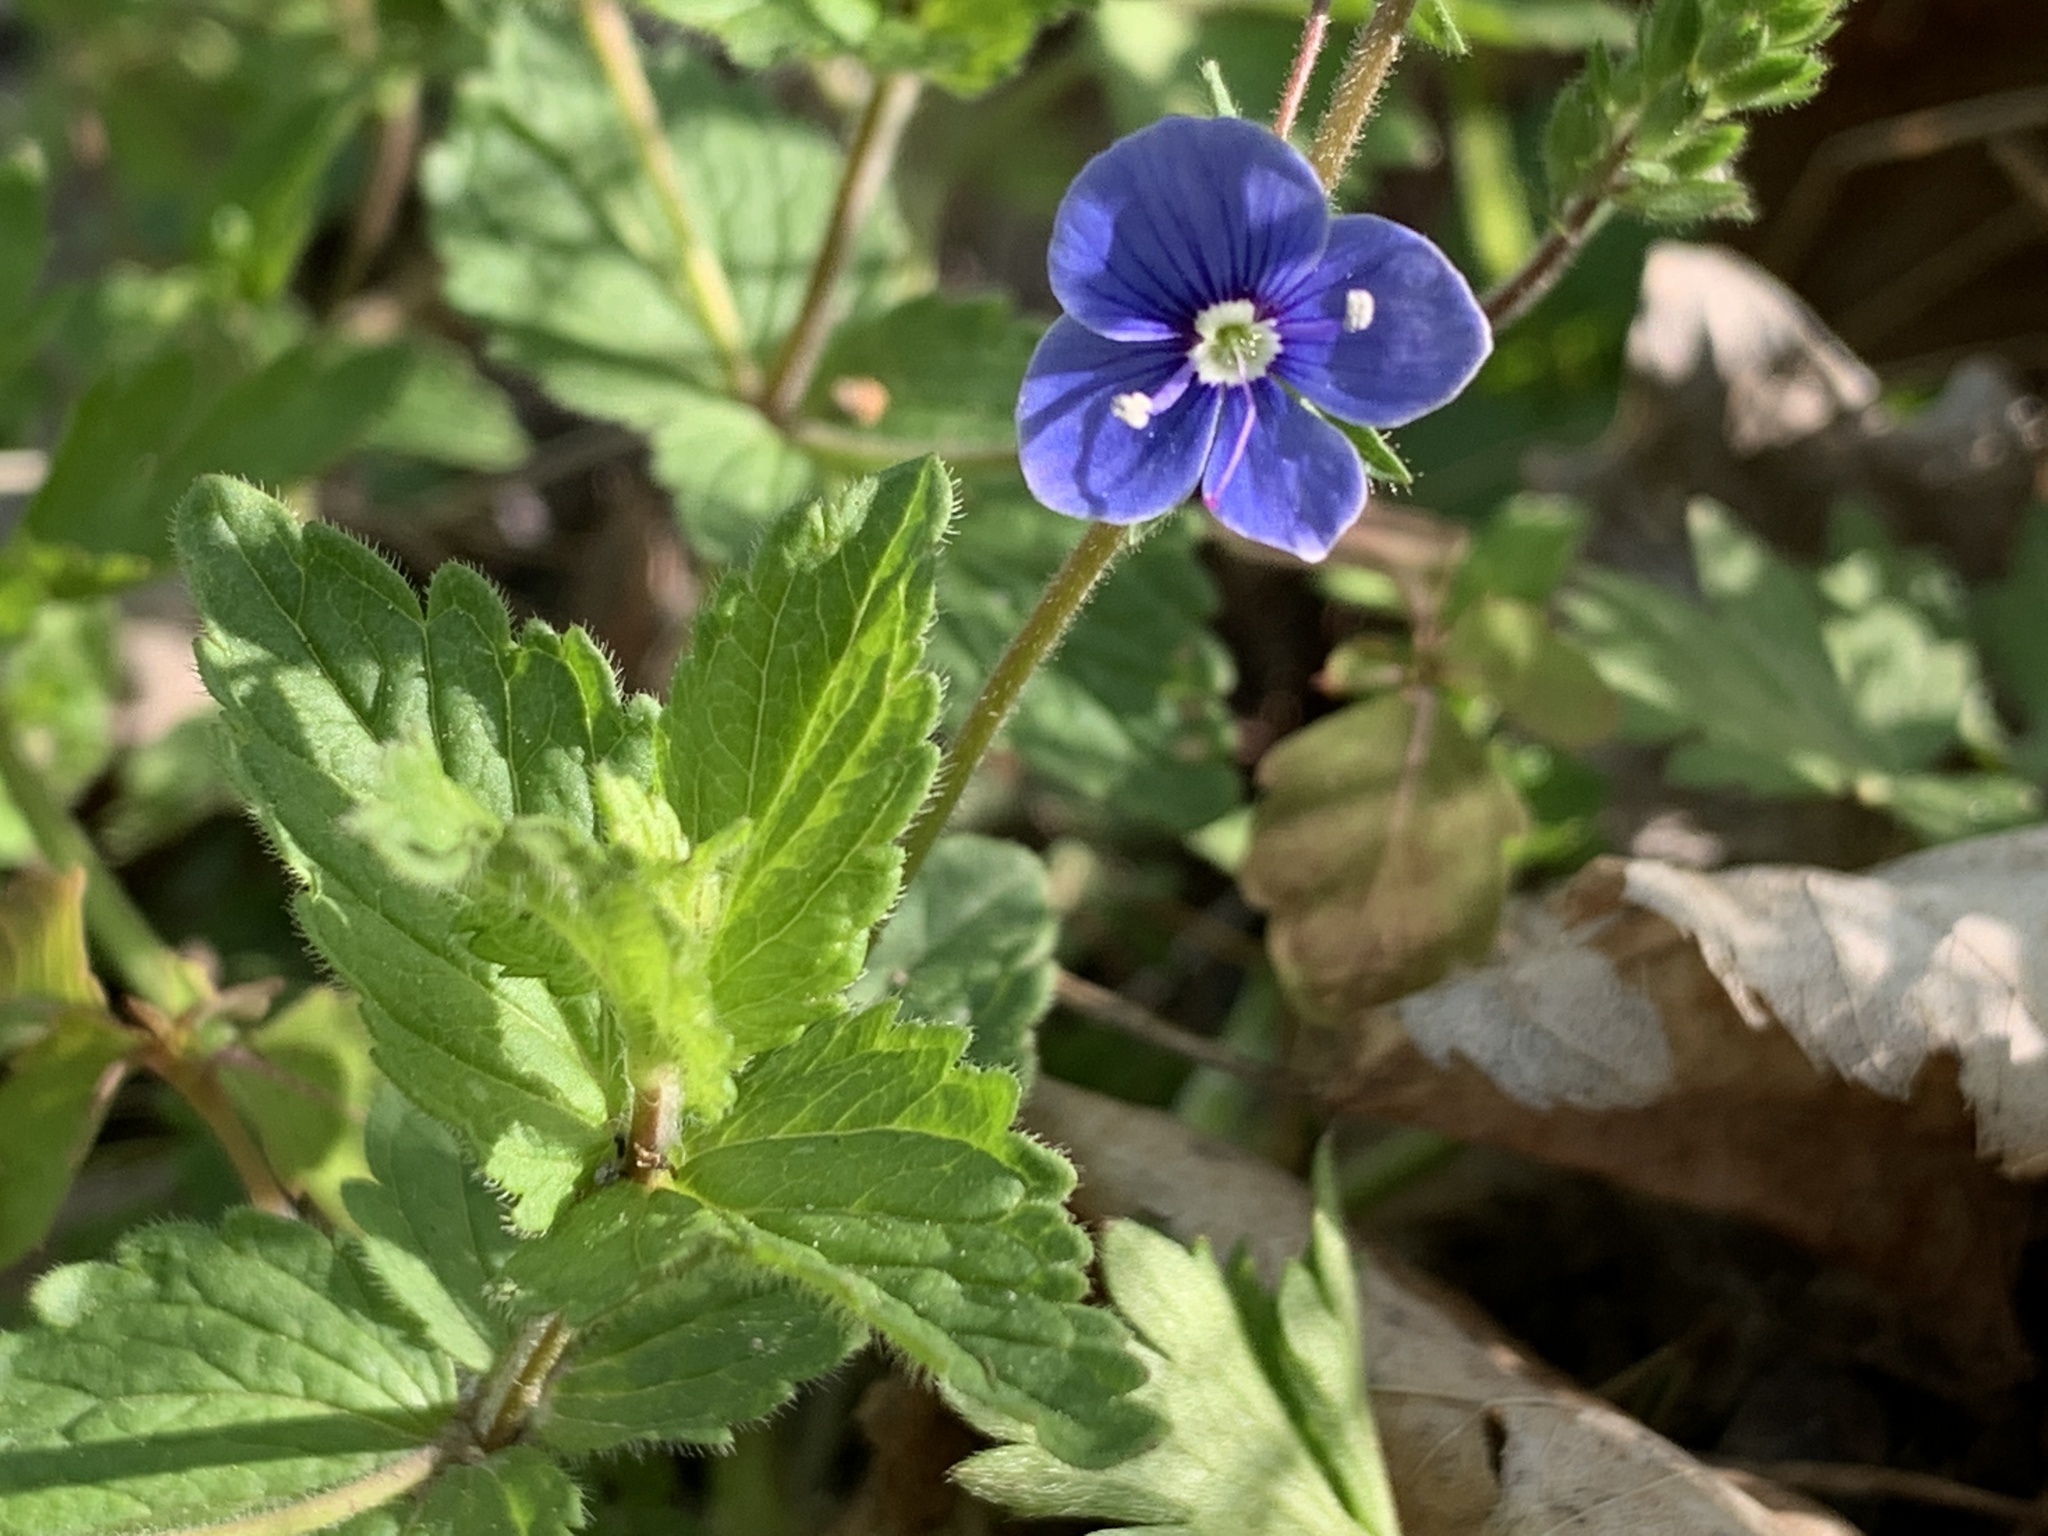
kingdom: Plantae
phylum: Tracheophyta
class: Magnoliopsida
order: Lamiales
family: Plantaginaceae
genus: Veronica
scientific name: Veronica chamaedrys
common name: Germander speedwell
